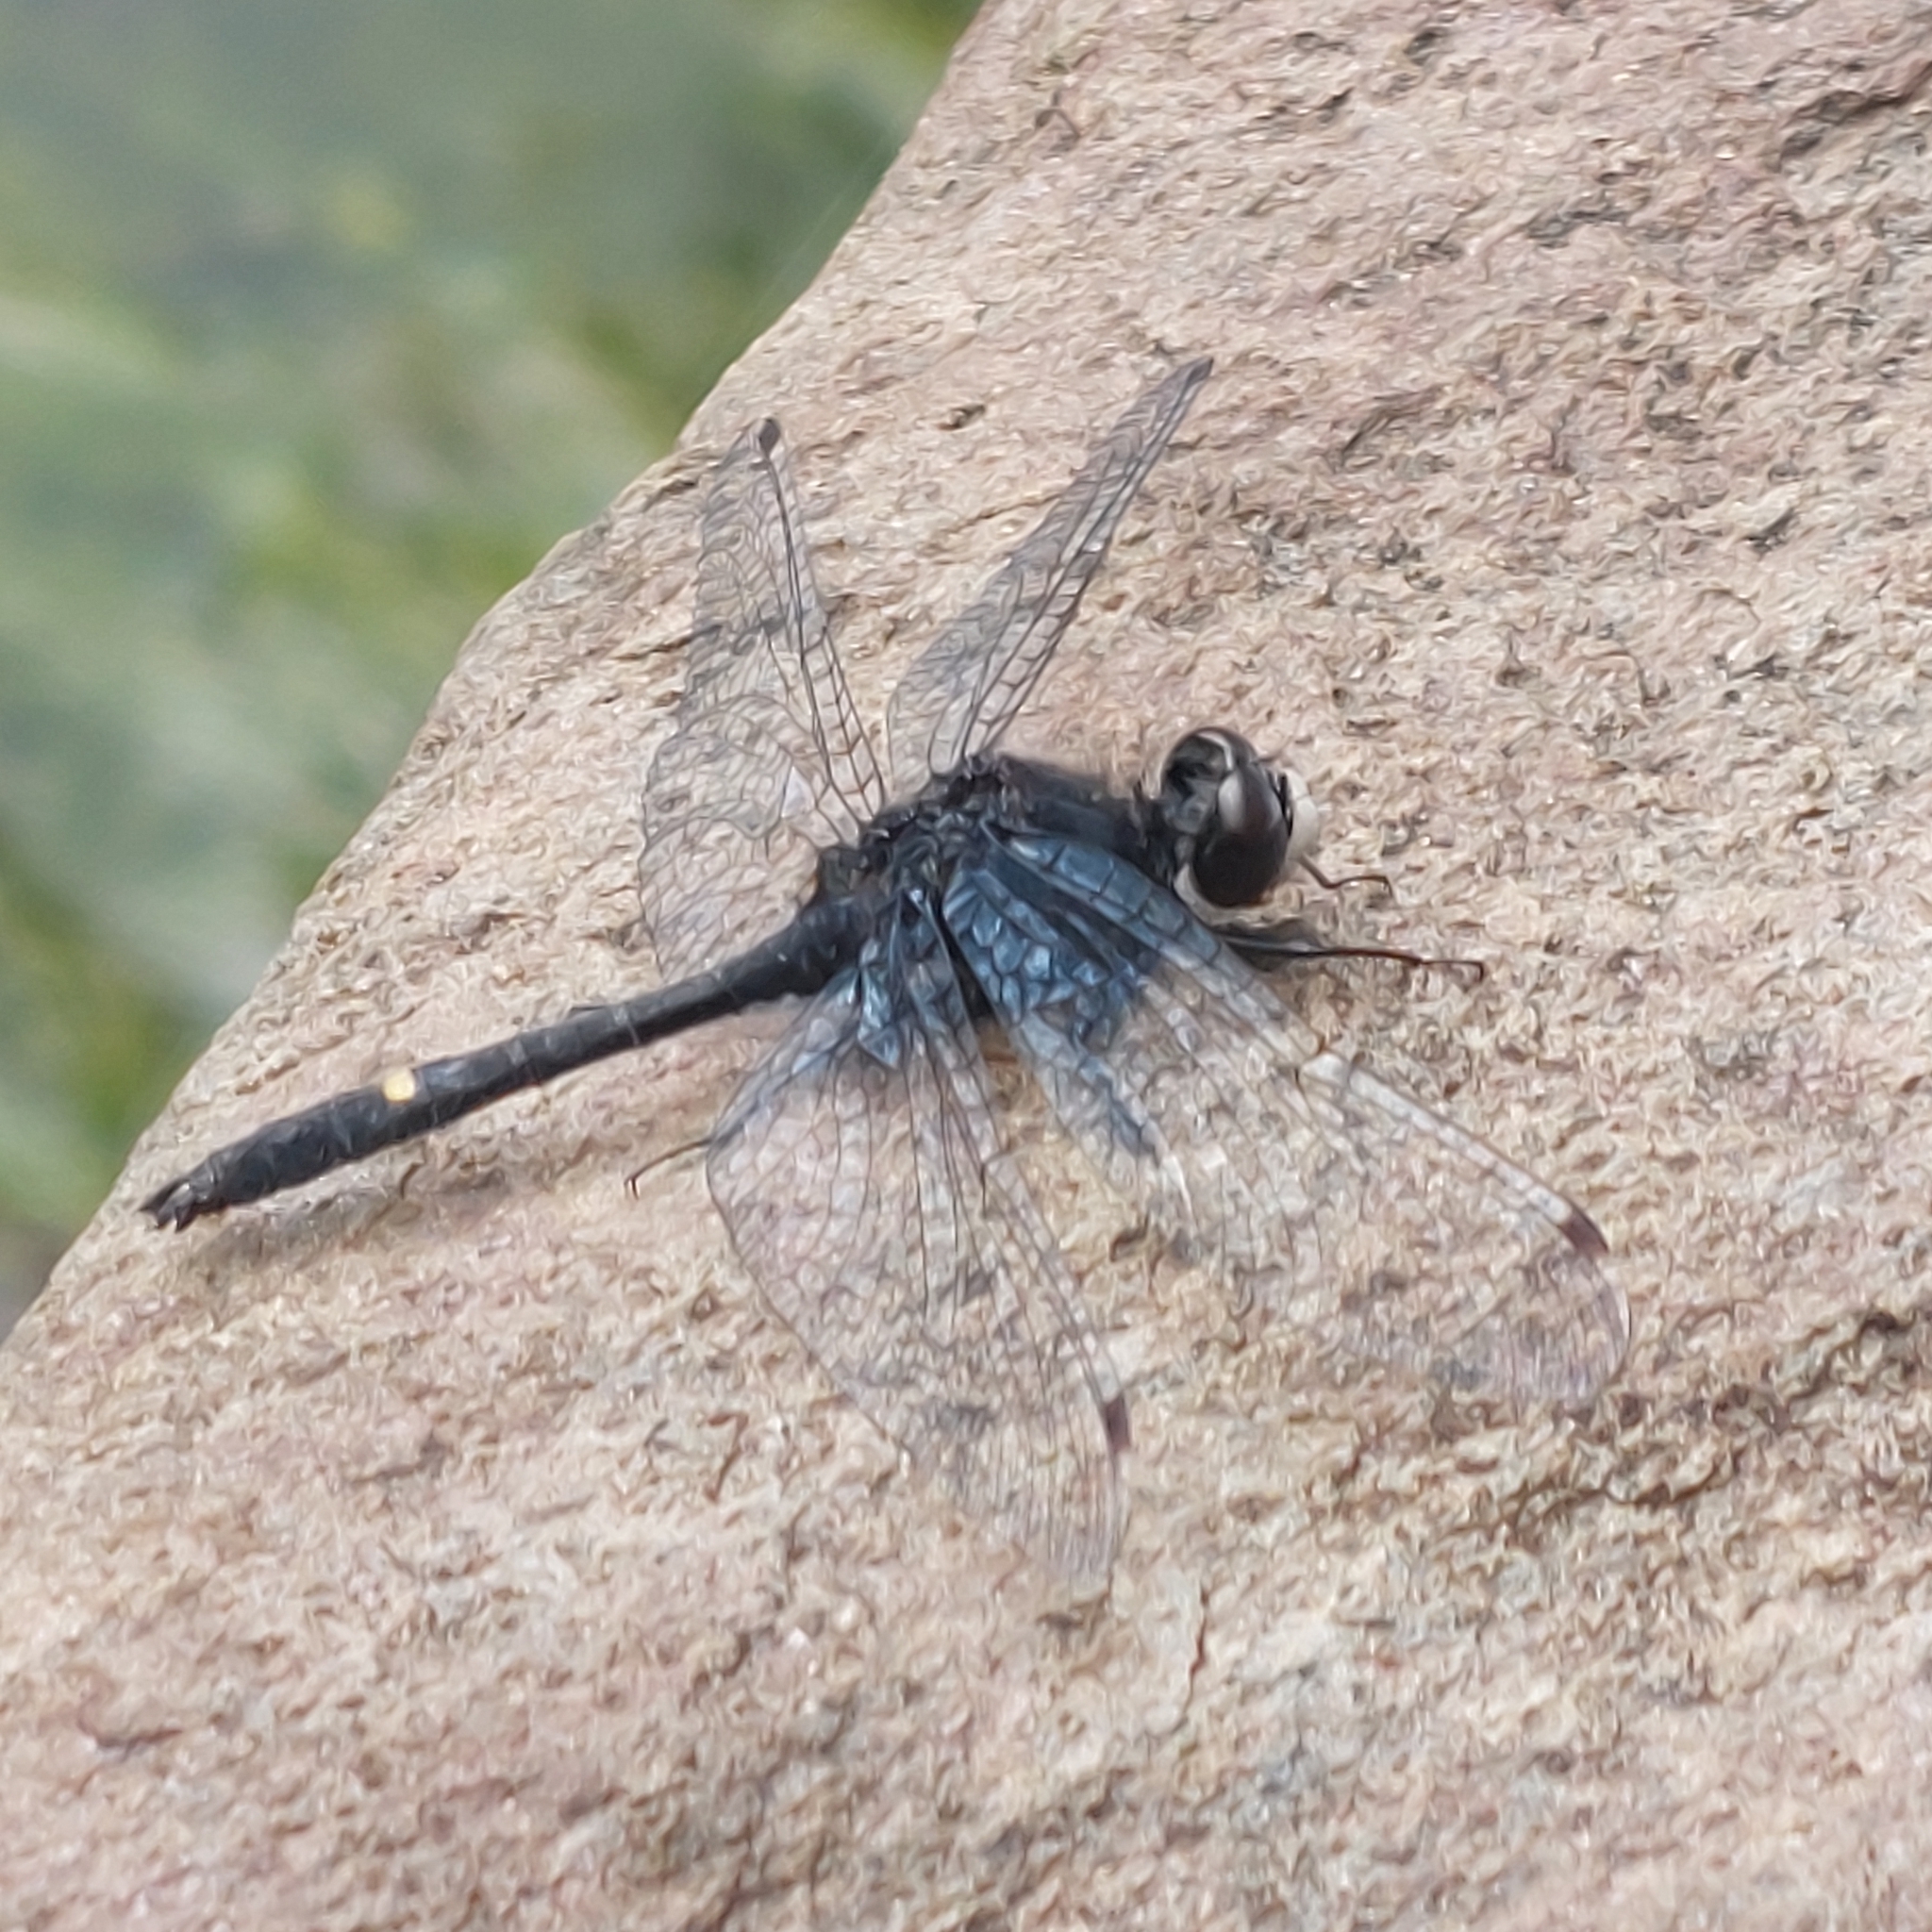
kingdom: Animalia
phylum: Arthropoda
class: Insecta
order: Odonata
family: Libellulidae
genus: Leucorrhinia
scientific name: Leucorrhinia intacta
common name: Dot-tailed whiteface
